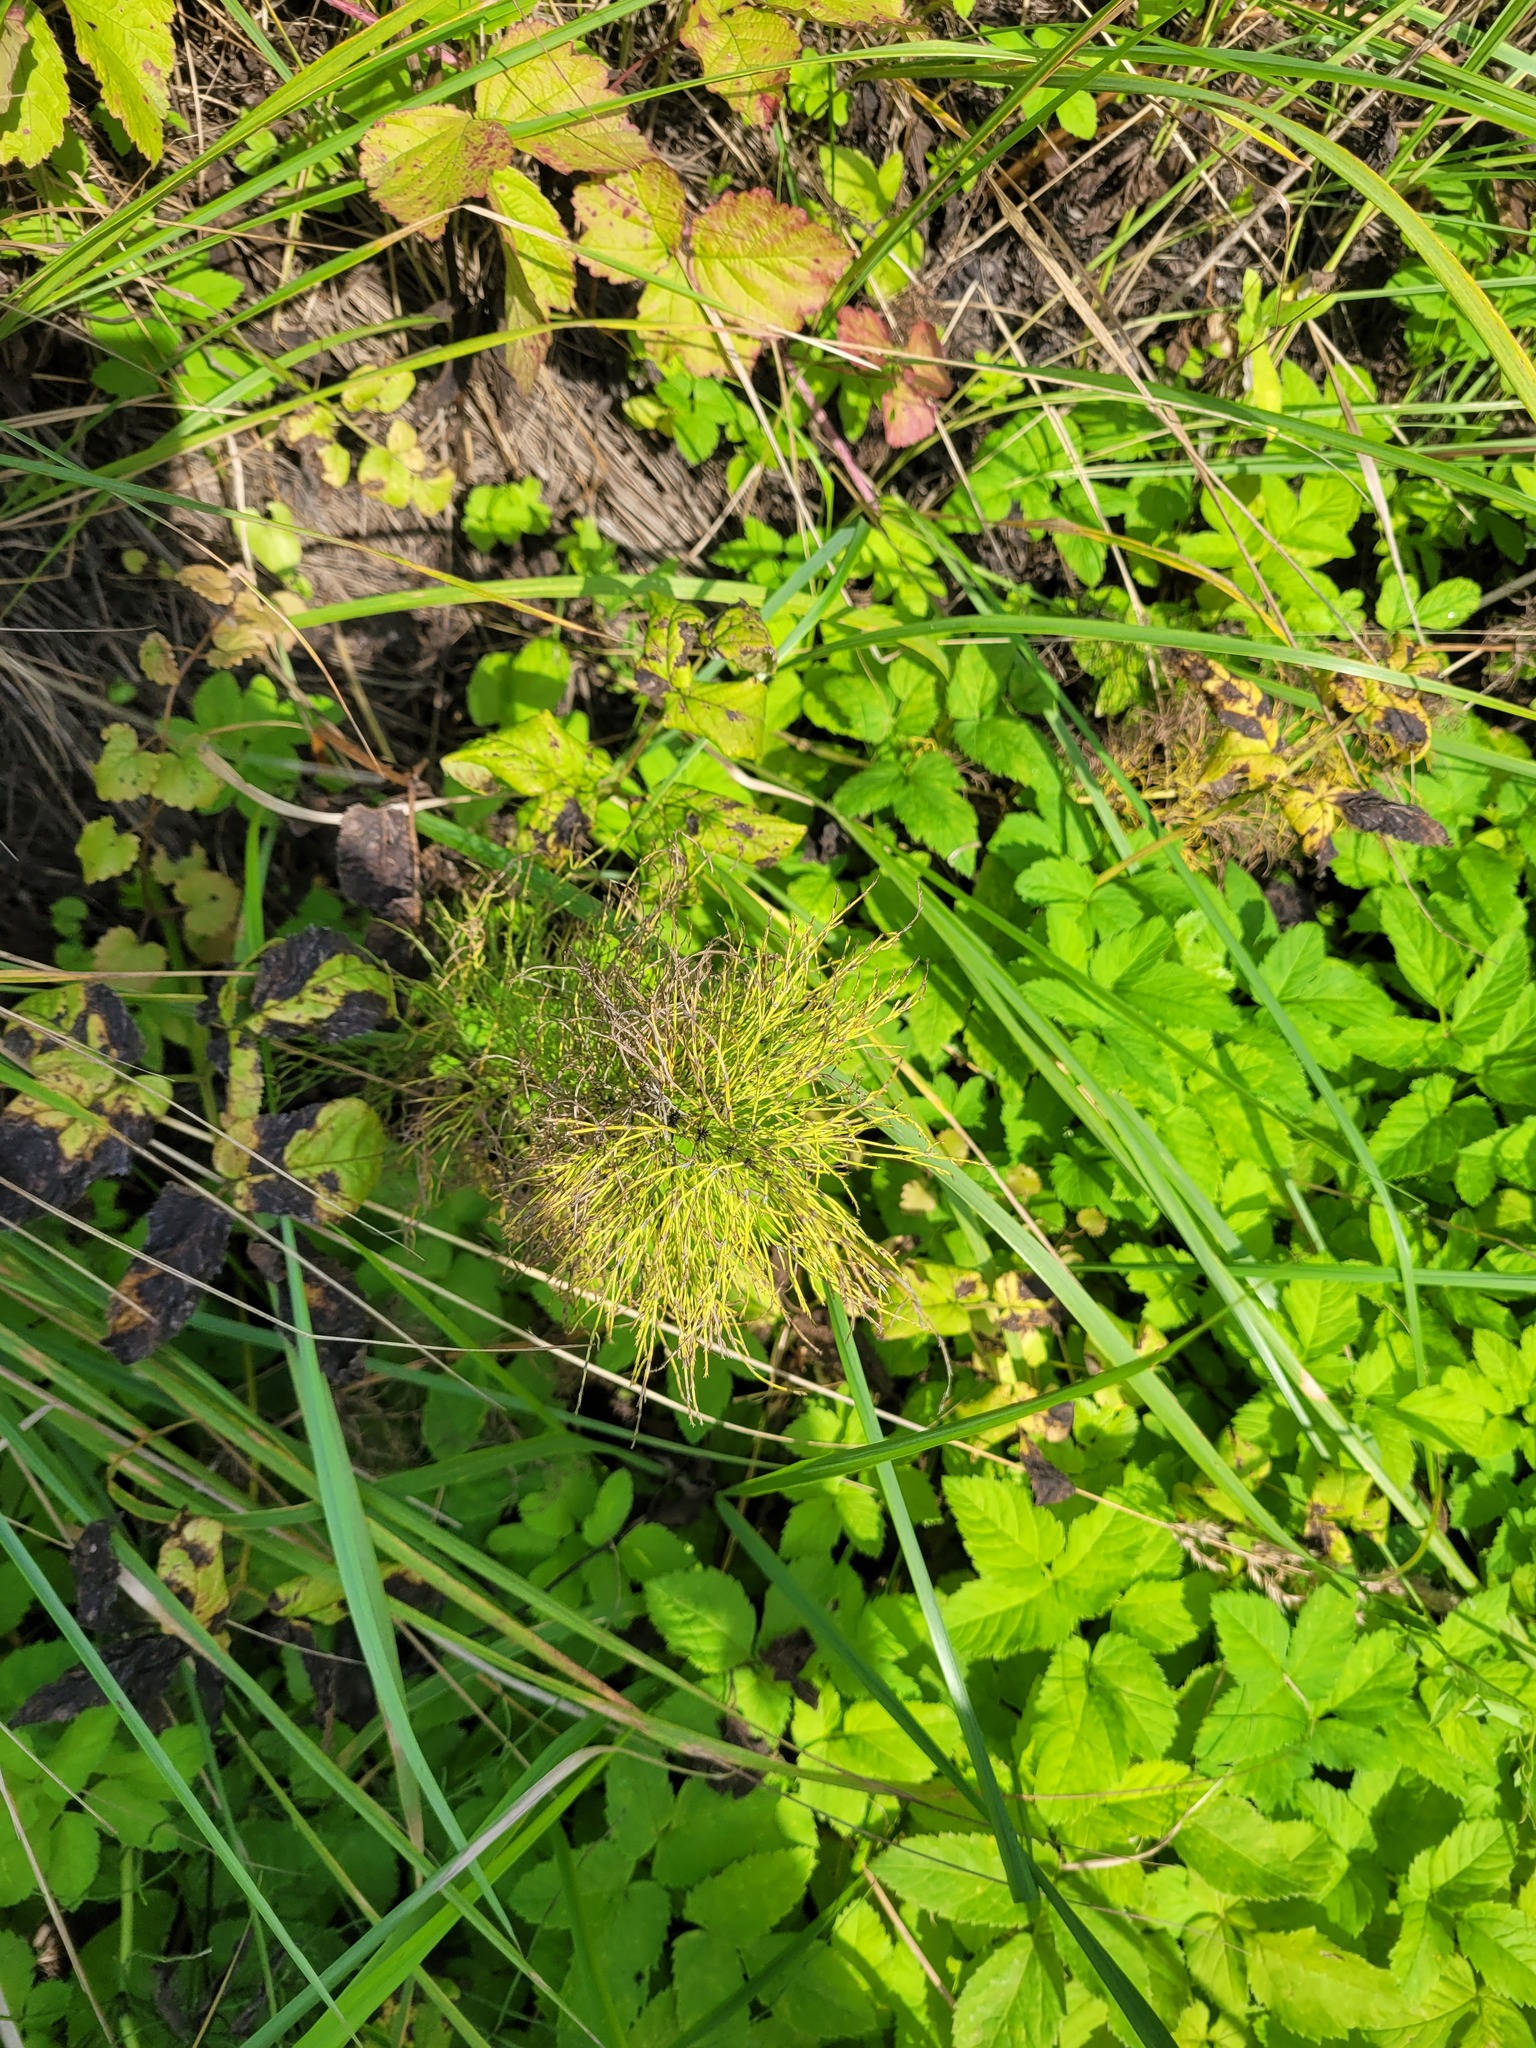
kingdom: Plantae
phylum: Tracheophyta
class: Polypodiopsida
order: Equisetales
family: Equisetaceae
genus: Equisetum
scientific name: Equisetum sylvaticum
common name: Wood horsetail
